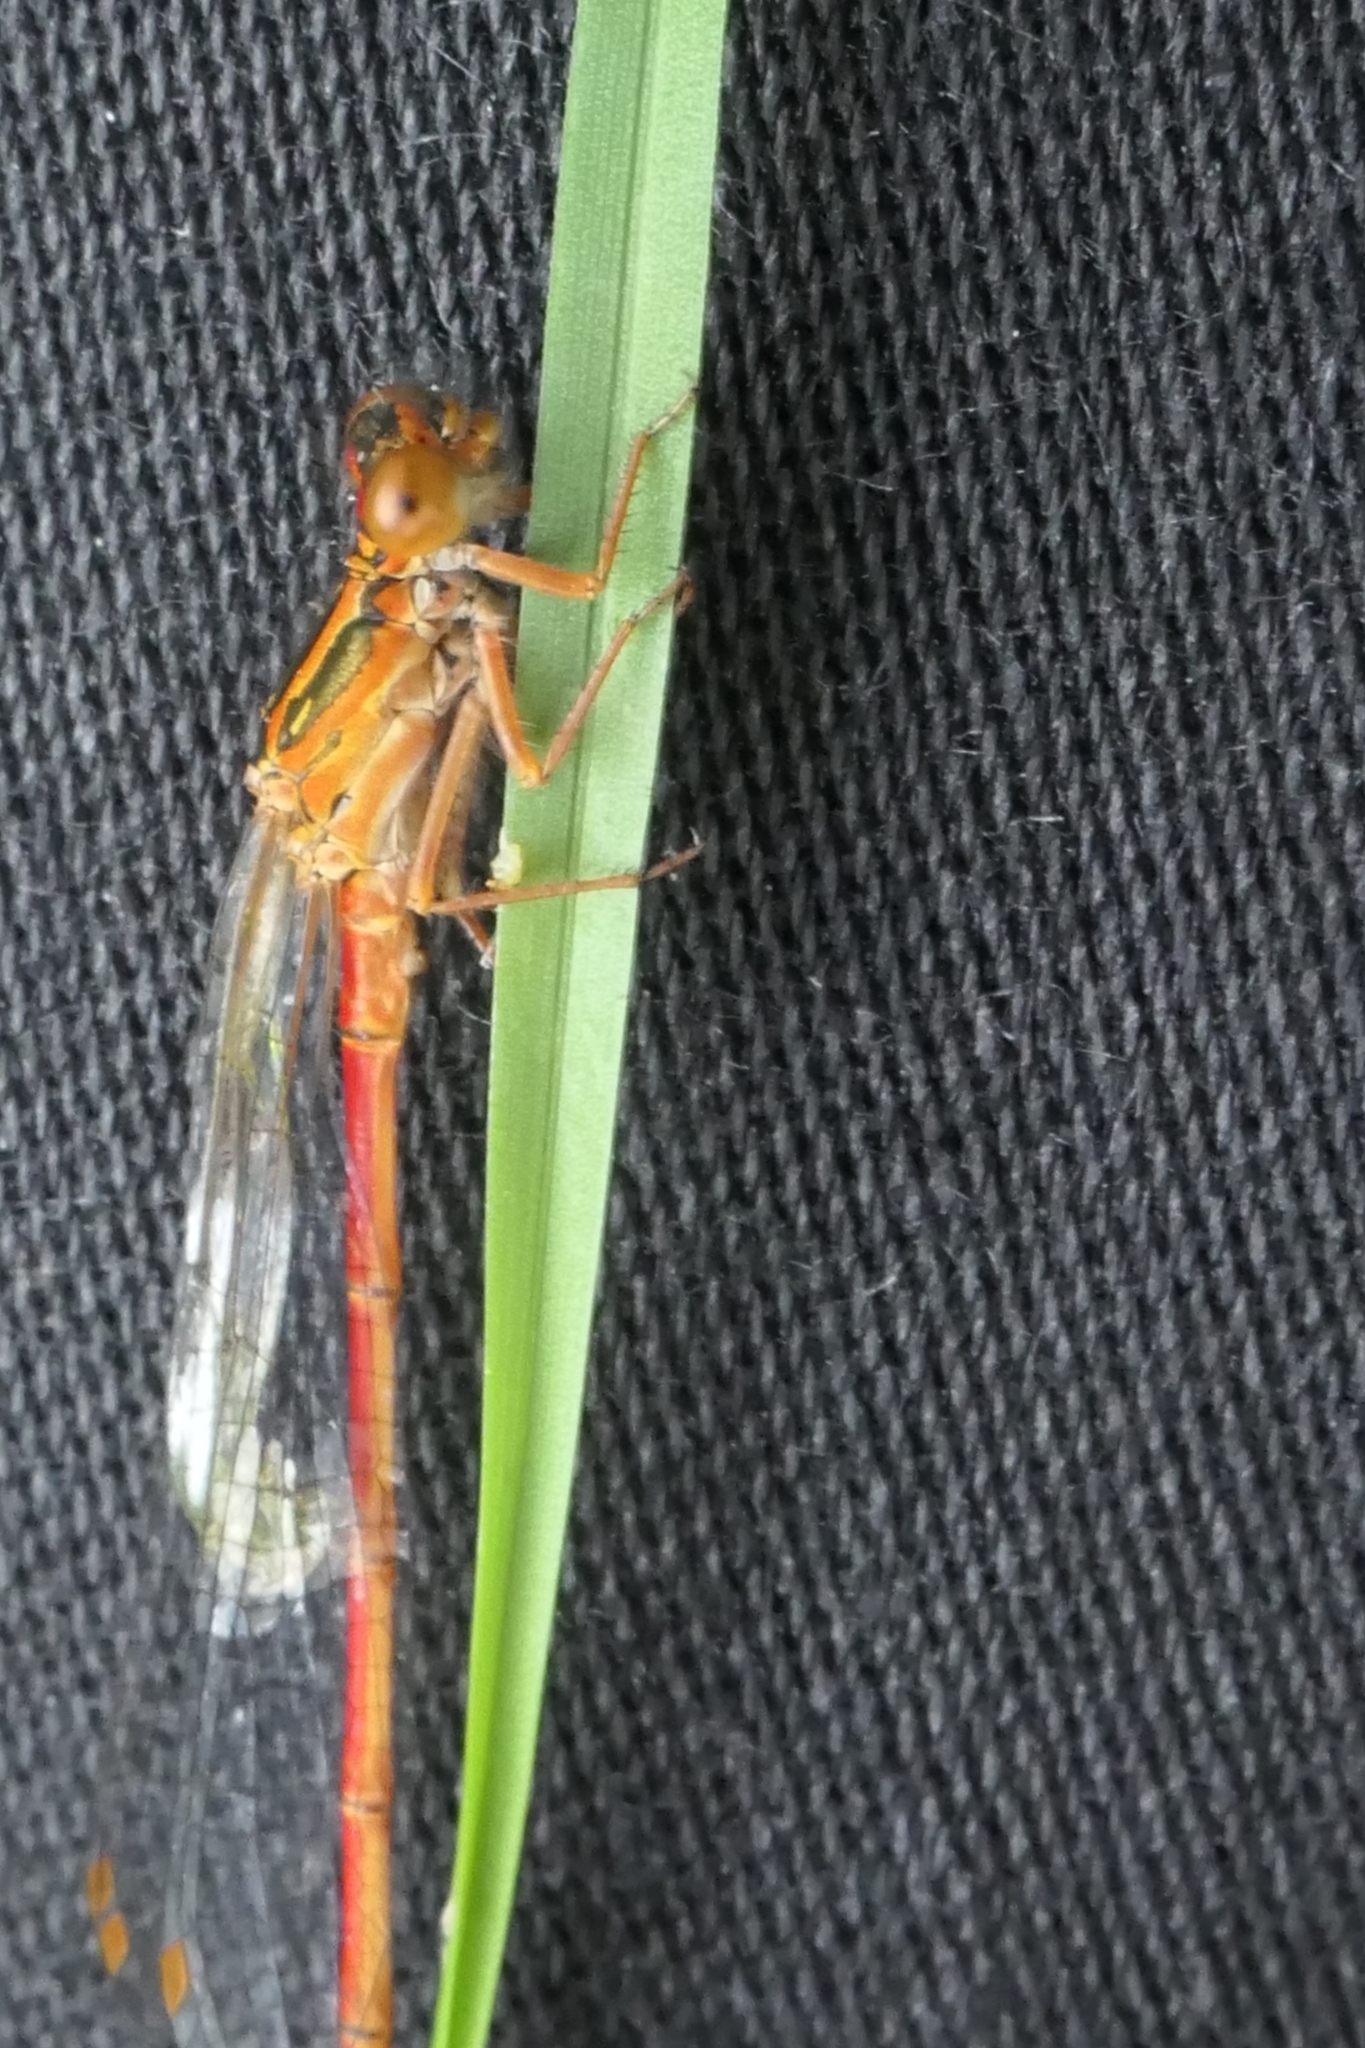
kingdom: Animalia
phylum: Arthropoda
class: Insecta
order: Odonata
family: Coenagrionidae
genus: Xanthocnemis
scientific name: Xanthocnemis zealandica
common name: Common redcoat damselfly
